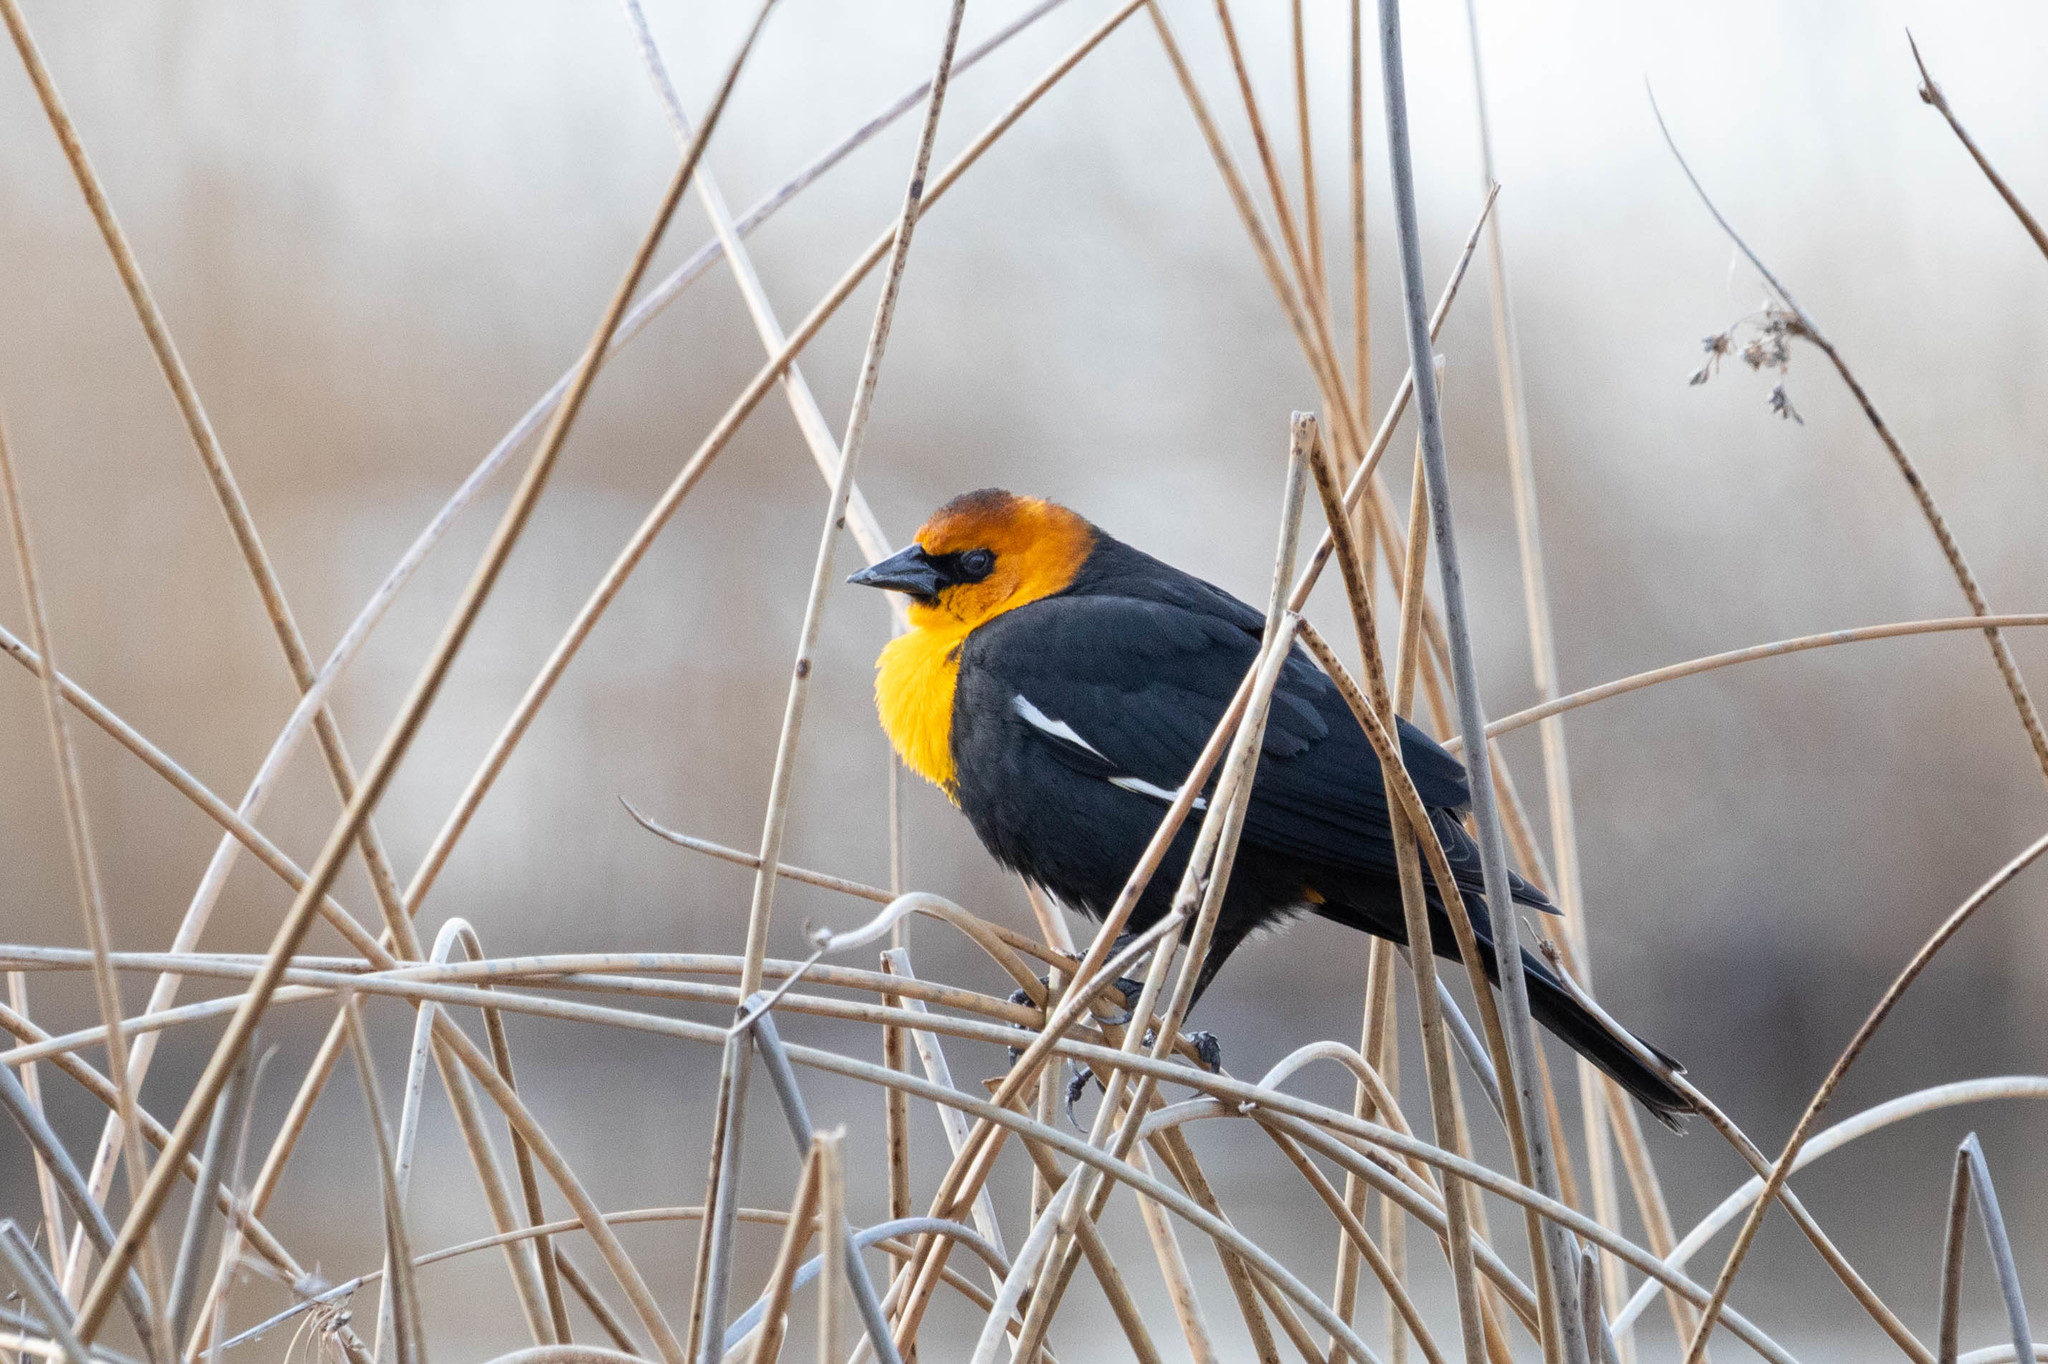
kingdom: Animalia
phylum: Chordata
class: Aves
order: Passeriformes
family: Icteridae
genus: Xanthocephalus
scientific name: Xanthocephalus xanthocephalus
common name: Yellow-headed blackbird
